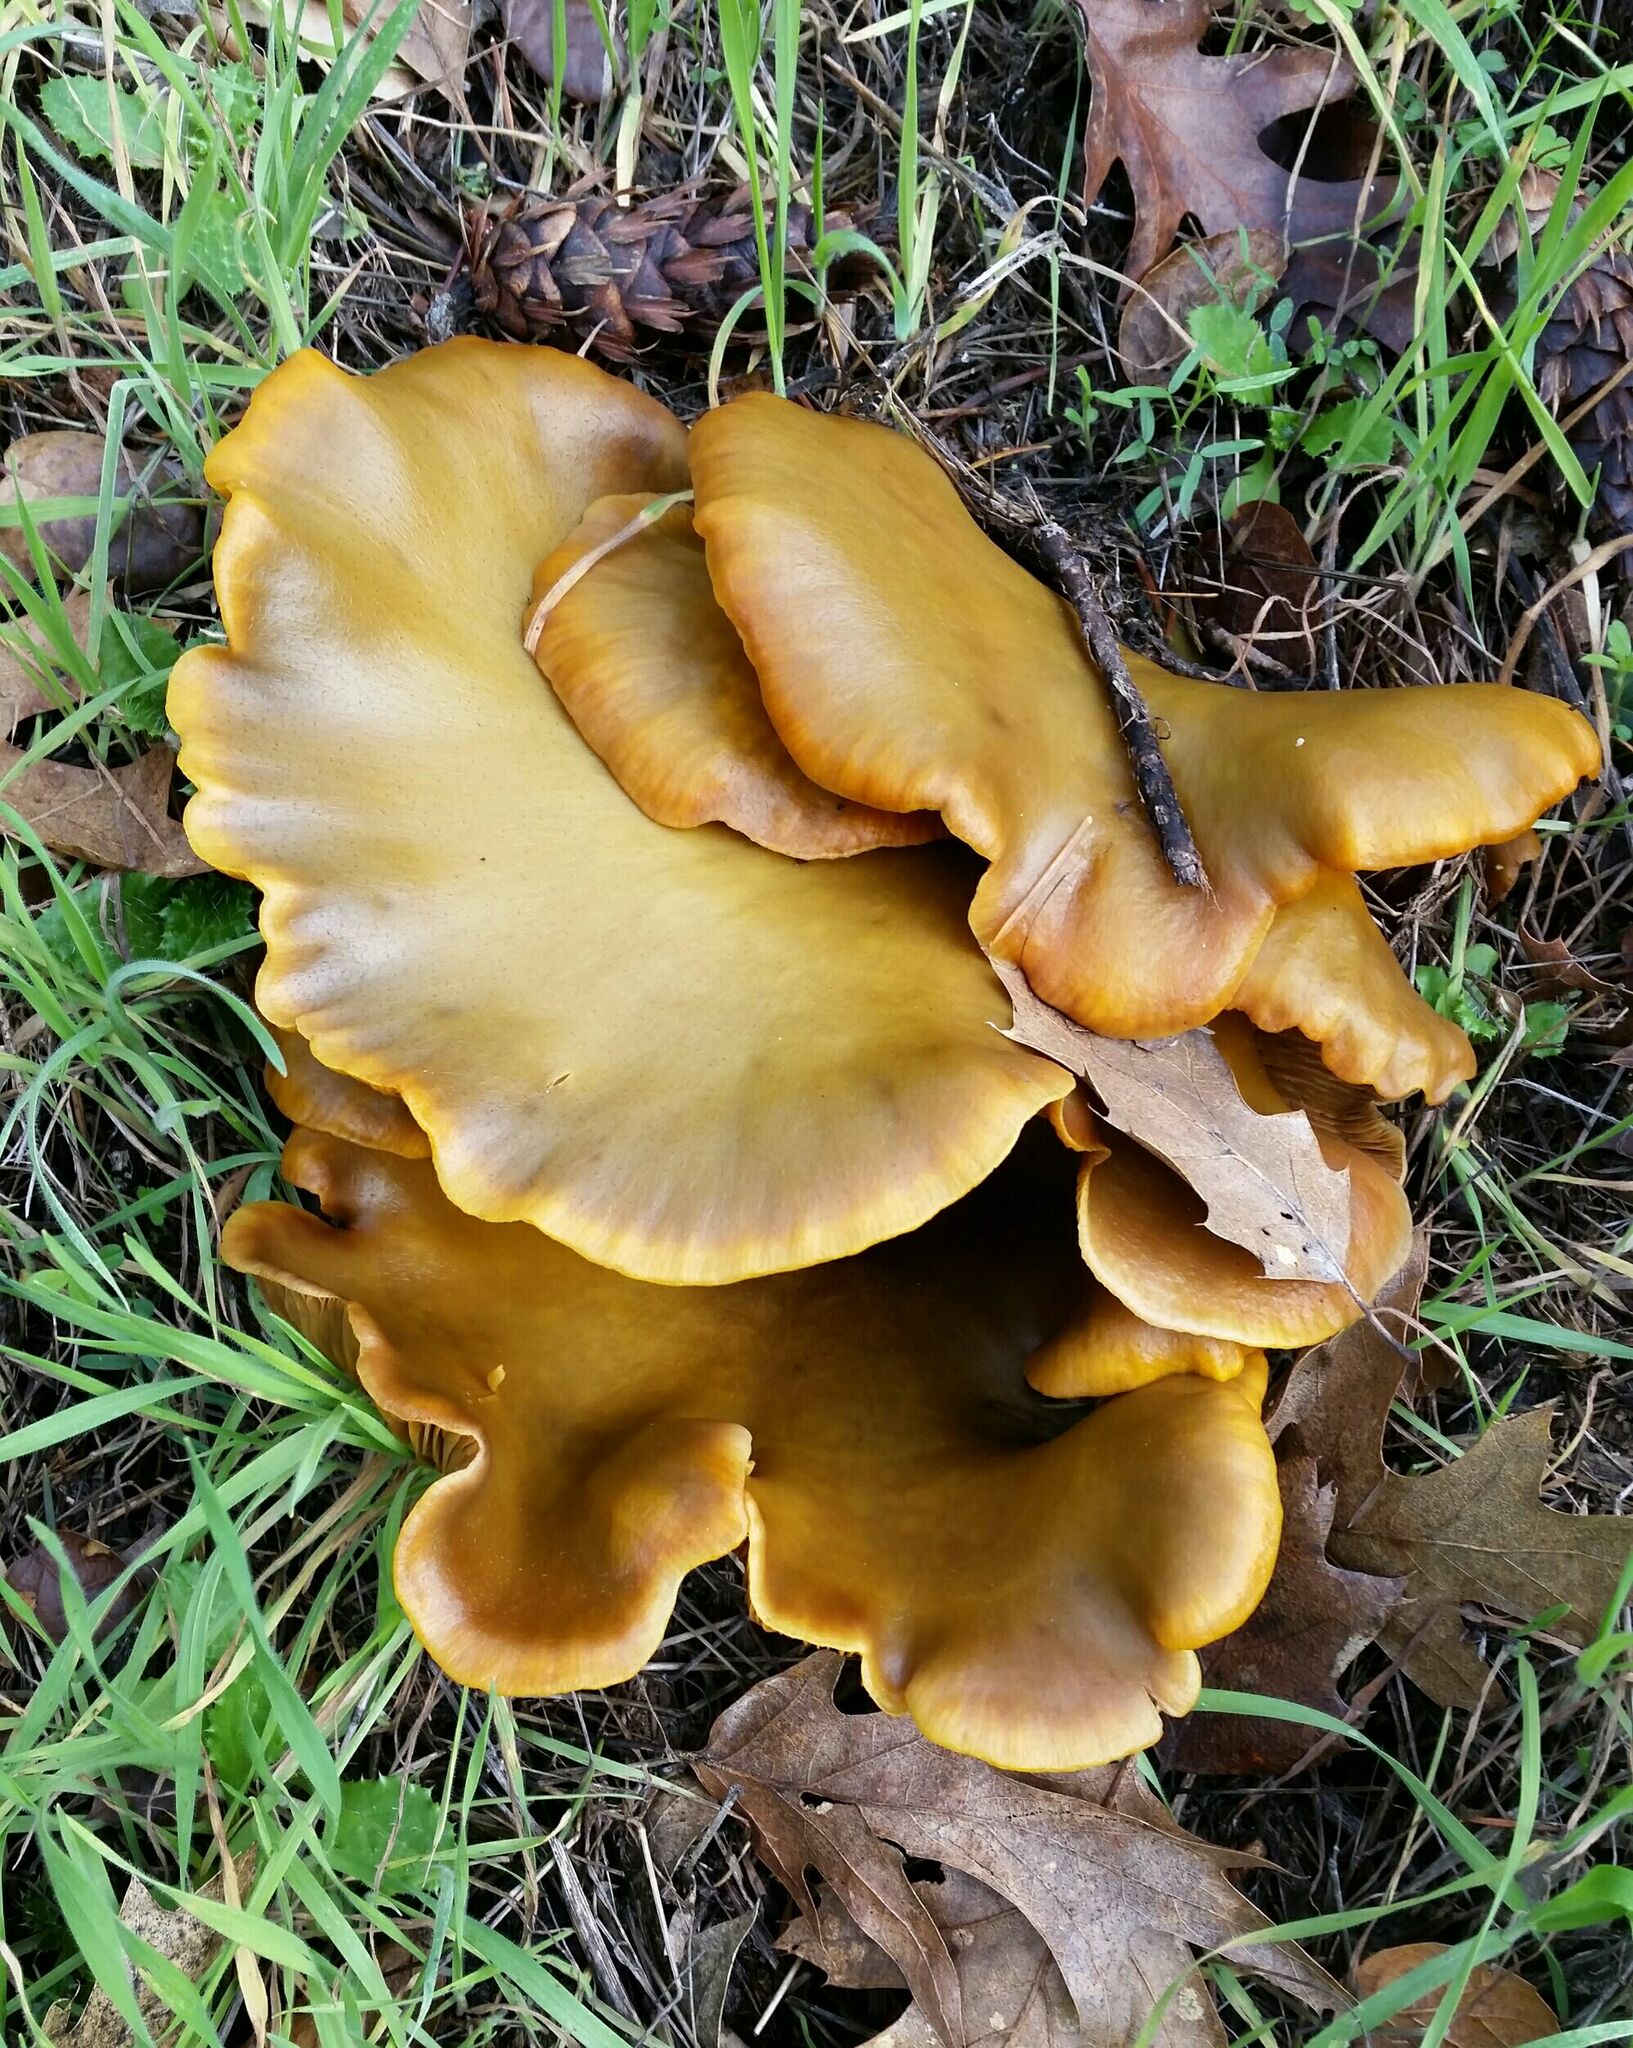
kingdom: Fungi
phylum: Basidiomycota
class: Agaricomycetes
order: Agaricales
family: Omphalotaceae
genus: Omphalotus
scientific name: Omphalotus olivascens
